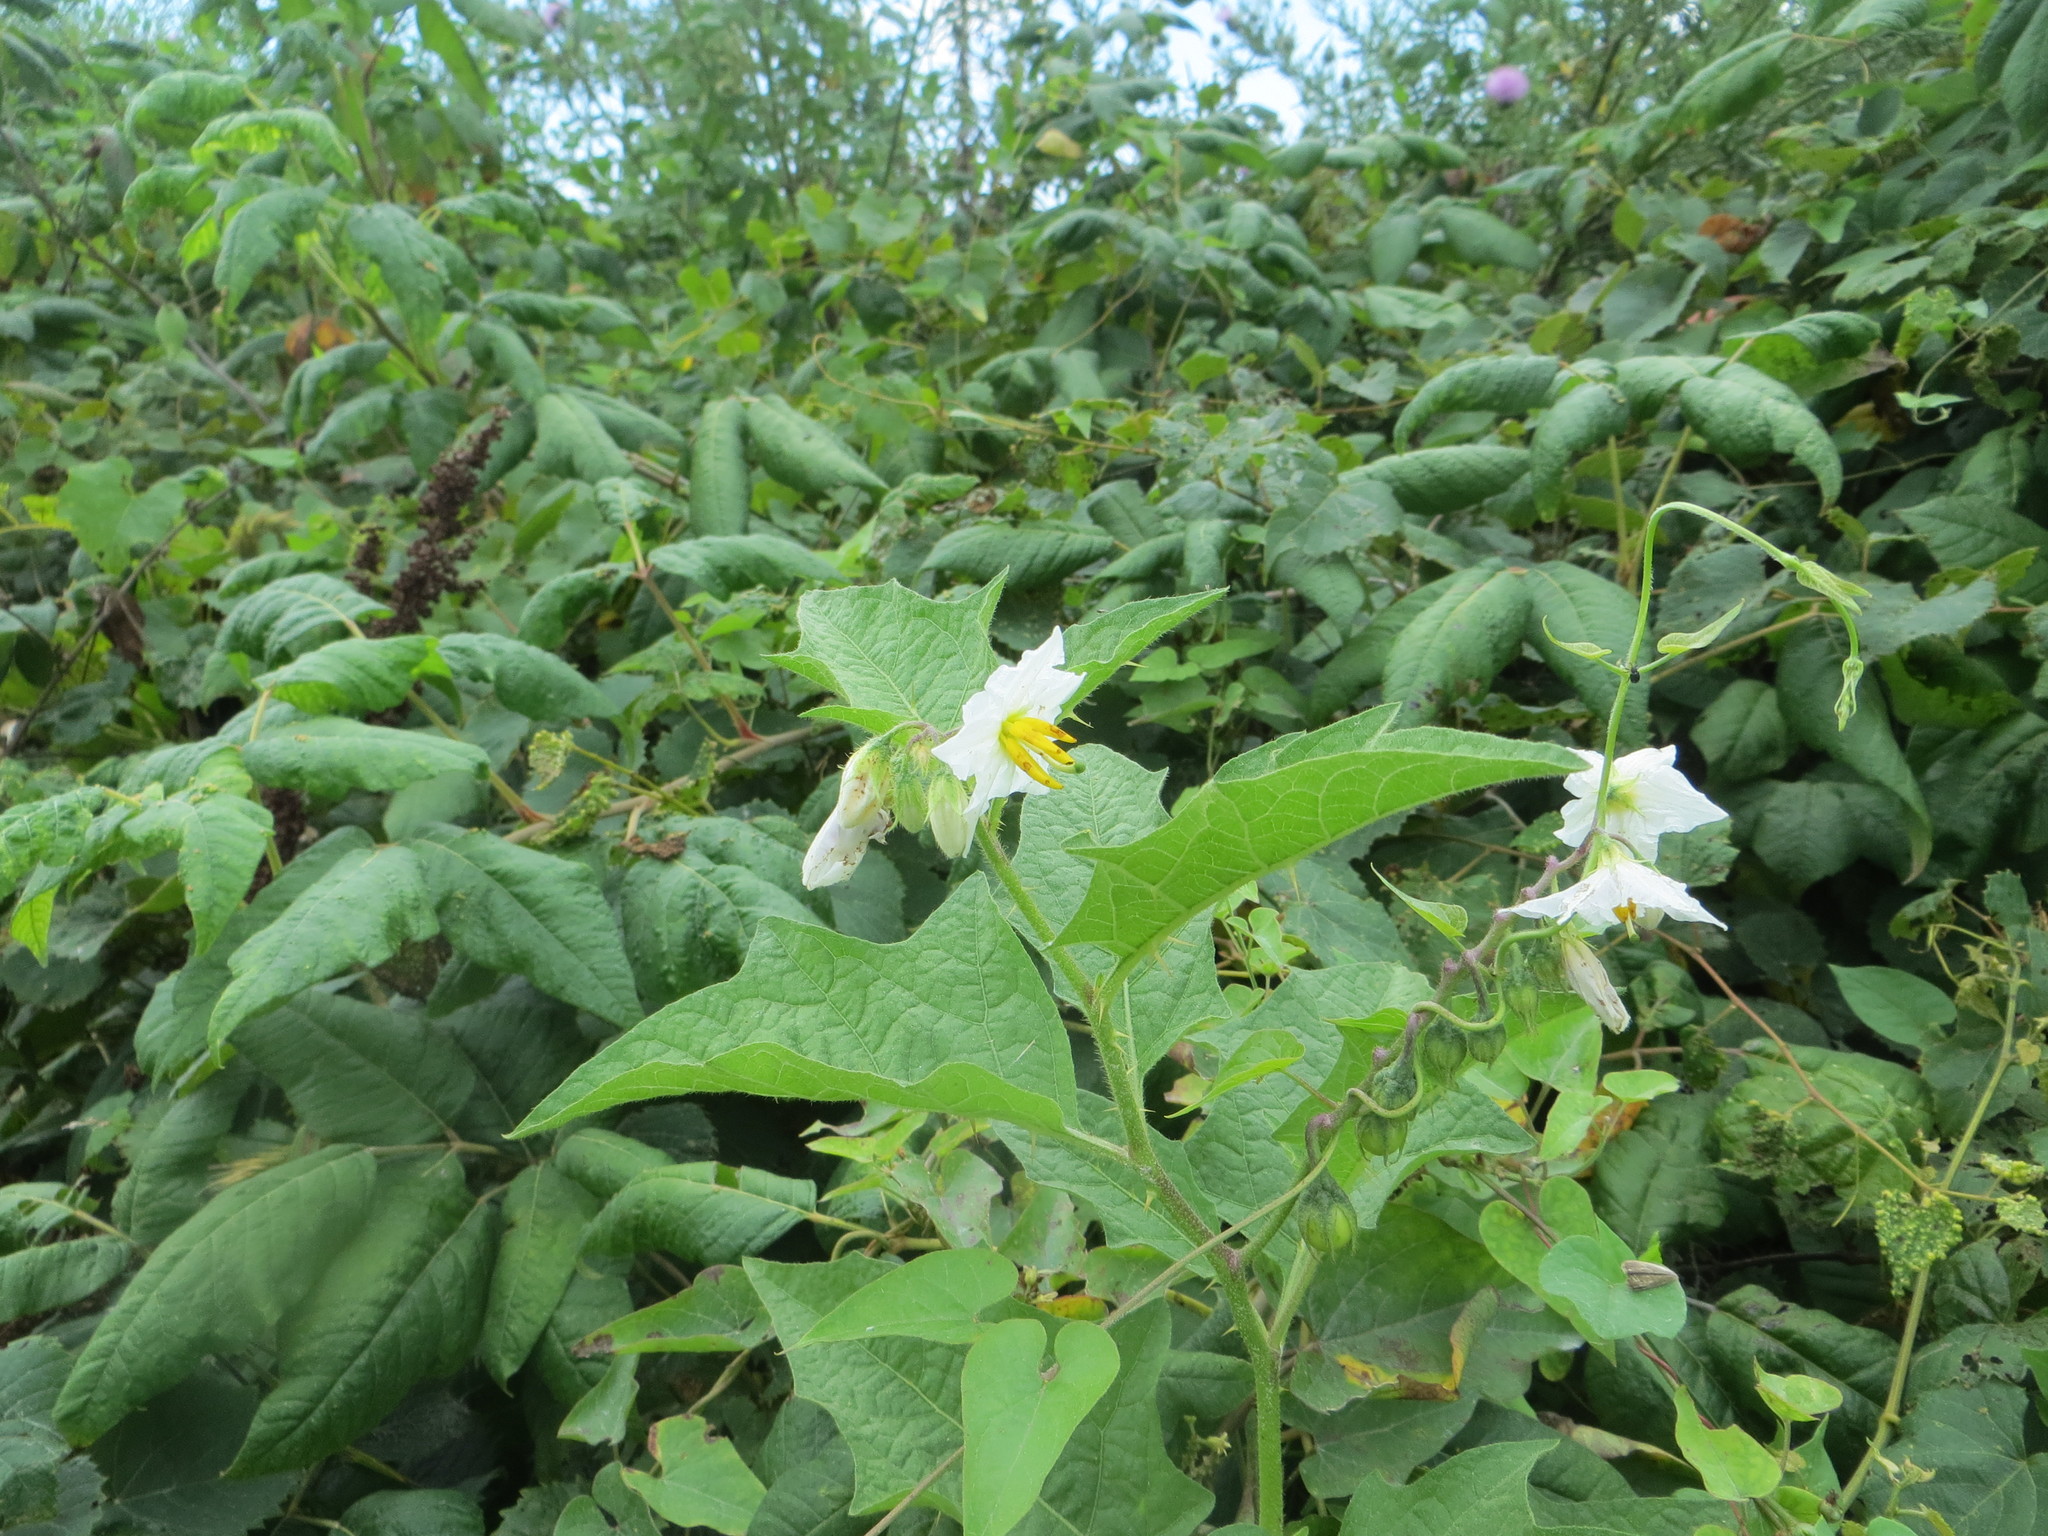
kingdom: Plantae
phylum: Tracheophyta
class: Magnoliopsida
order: Solanales
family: Solanaceae
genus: Solanum
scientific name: Solanum carolinense
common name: Horse-nettle
